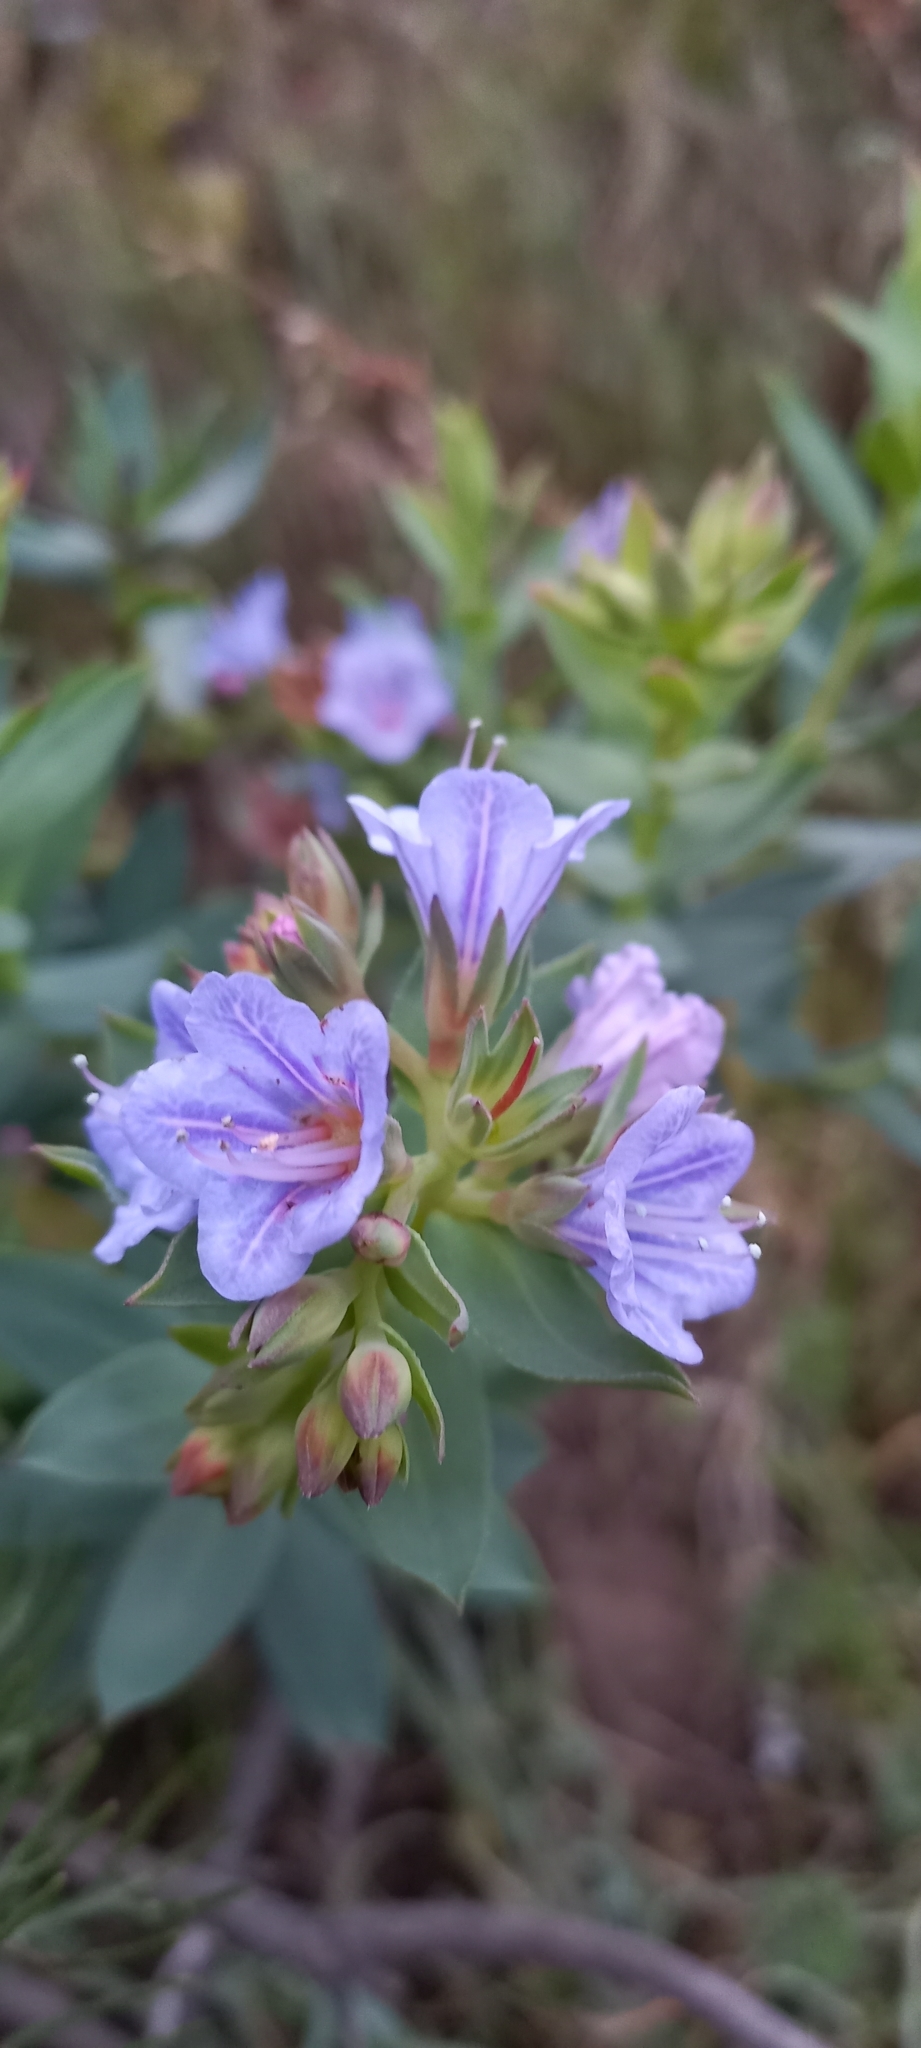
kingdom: Plantae
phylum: Tracheophyta
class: Magnoliopsida
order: Boraginales
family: Boraginaceae
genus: Lobostemon
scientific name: Lobostemon fruticosus
